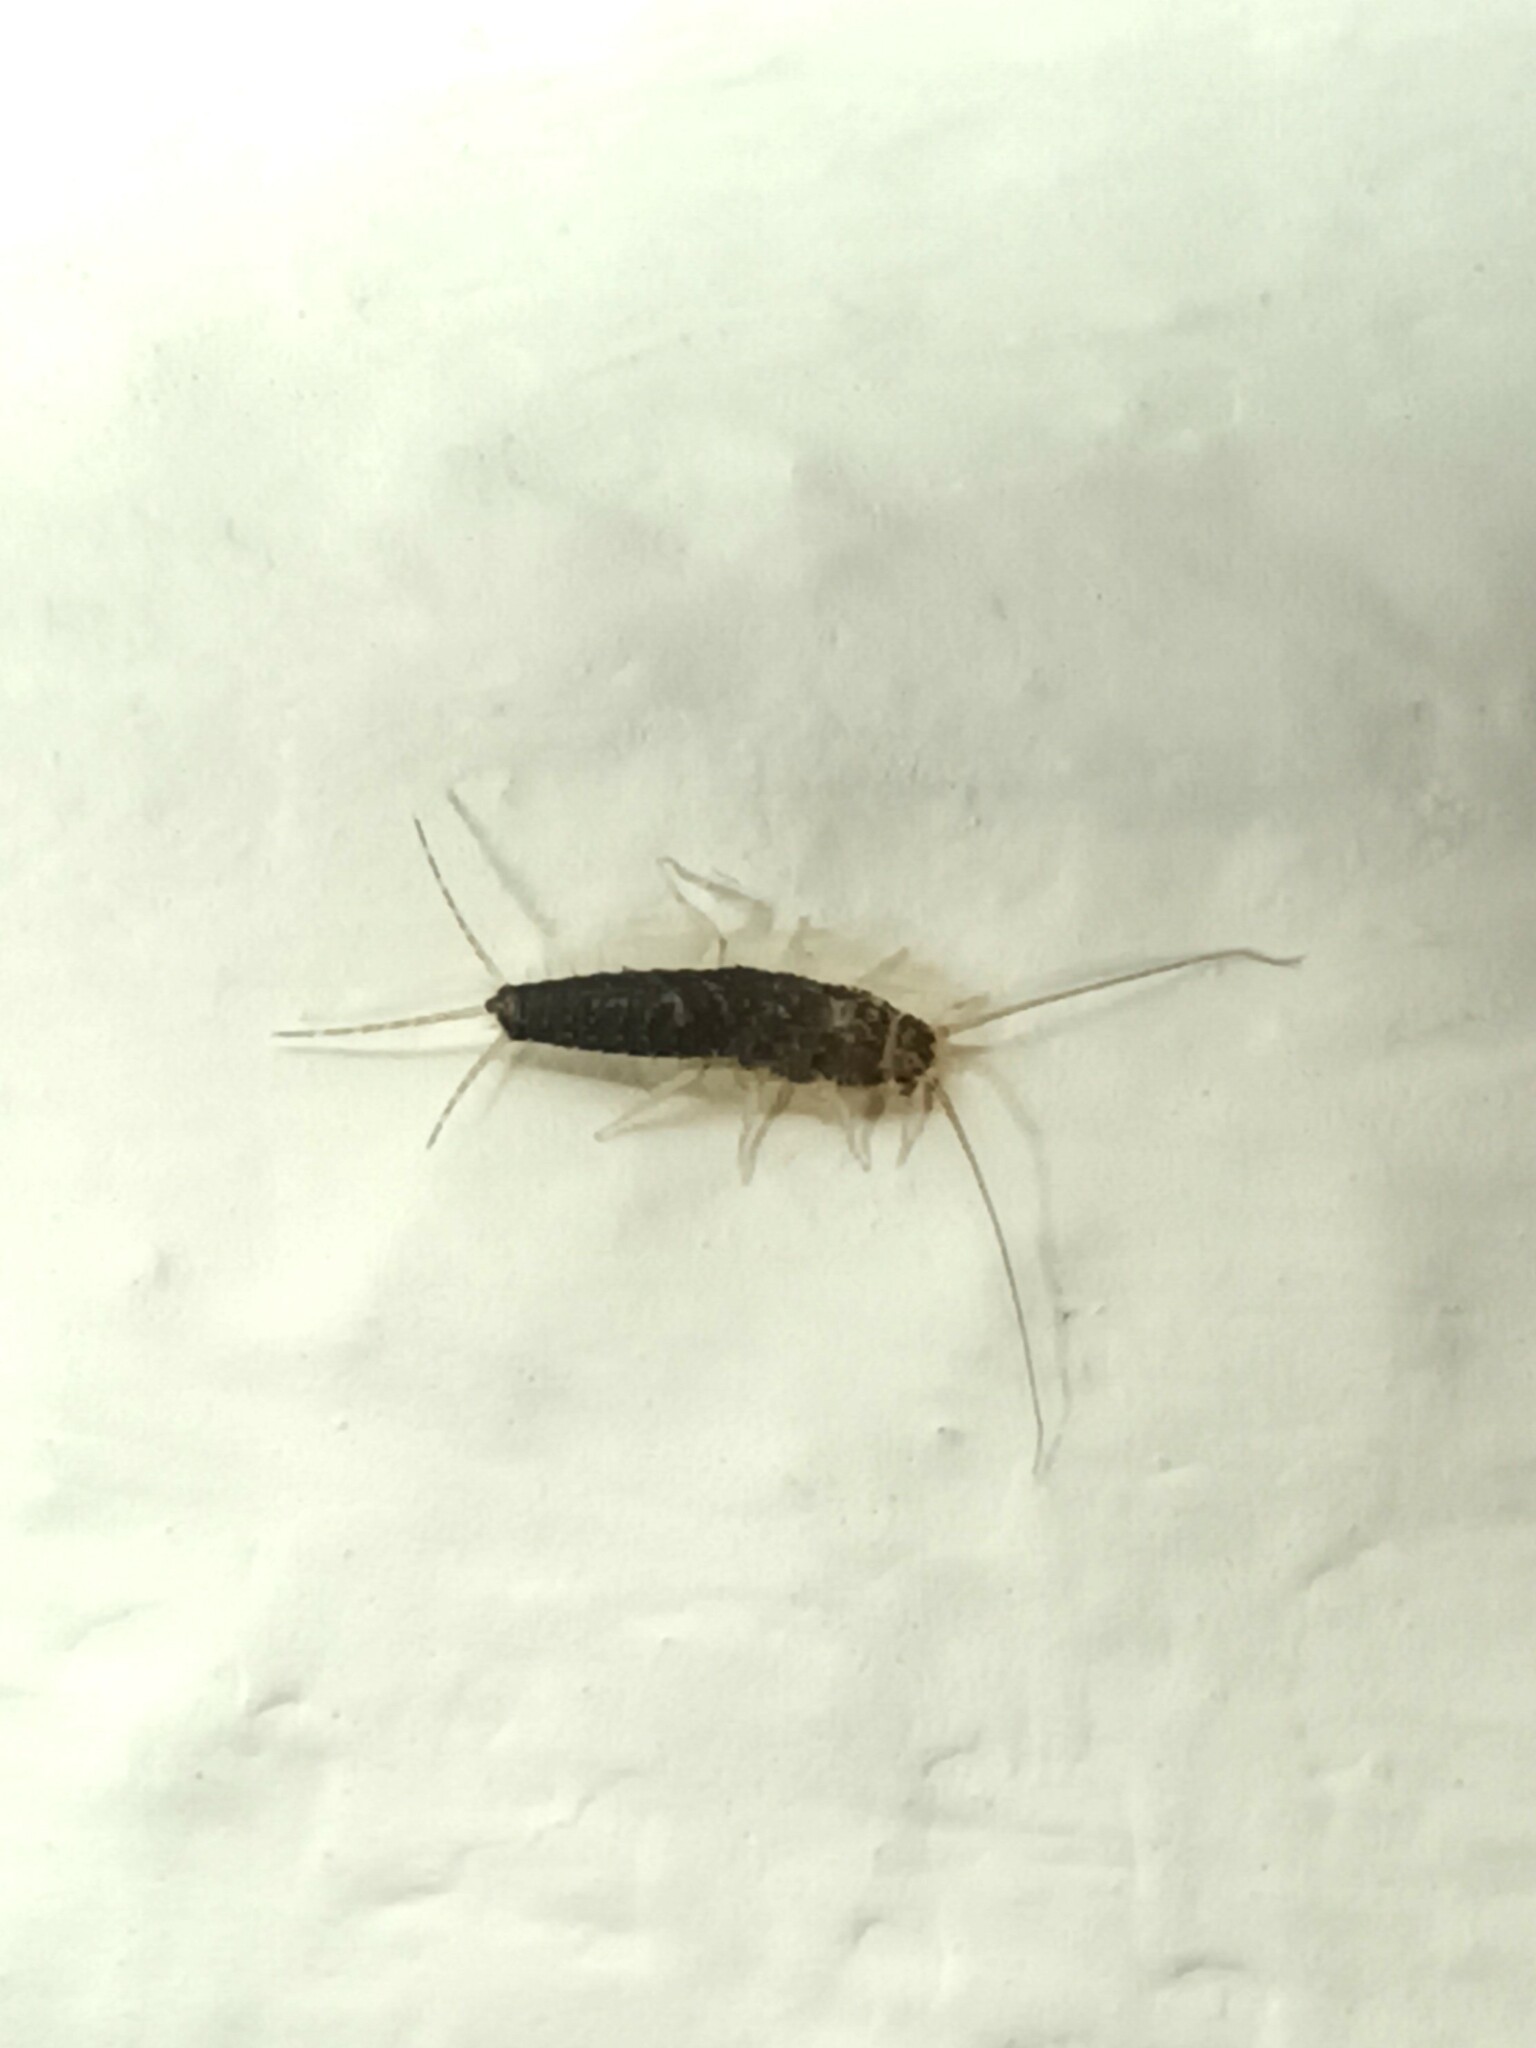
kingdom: Animalia
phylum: Arthropoda
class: Insecta
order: Zygentoma
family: Lepismatidae
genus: Ctenolepisma
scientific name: Ctenolepisma longicaudatum
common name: Silverfish
